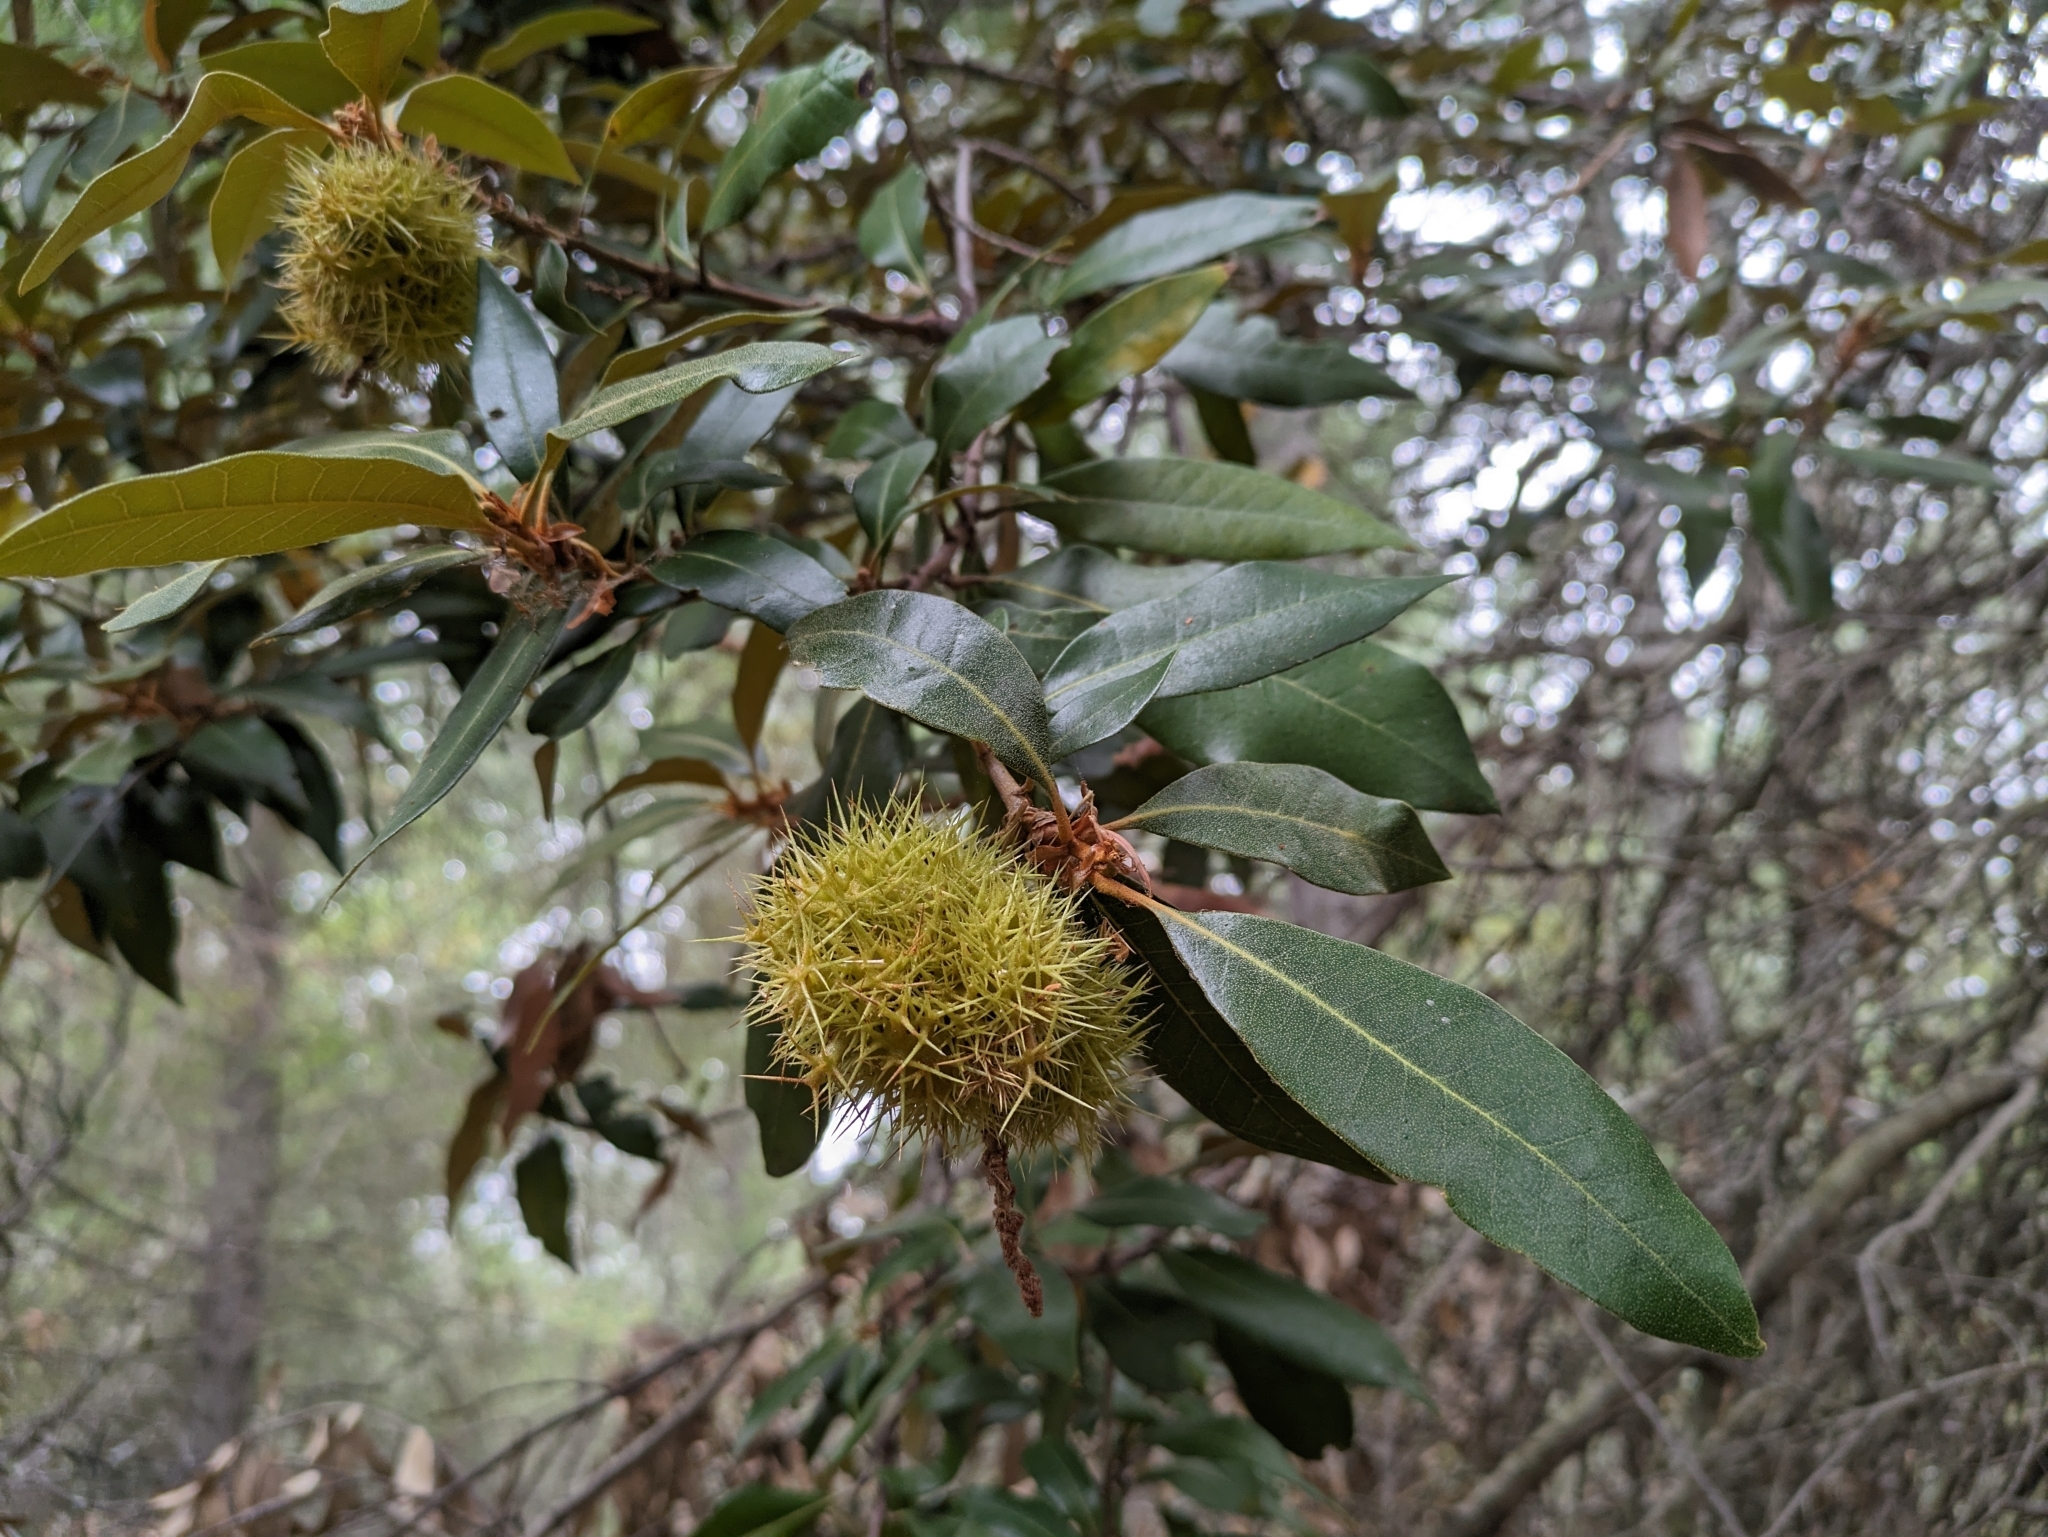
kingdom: Plantae
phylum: Tracheophyta
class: Magnoliopsida
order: Fagales
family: Fagaceae
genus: Chrysolepis
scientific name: Chrysolepis chrysophylla
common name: Giant chinquapin
